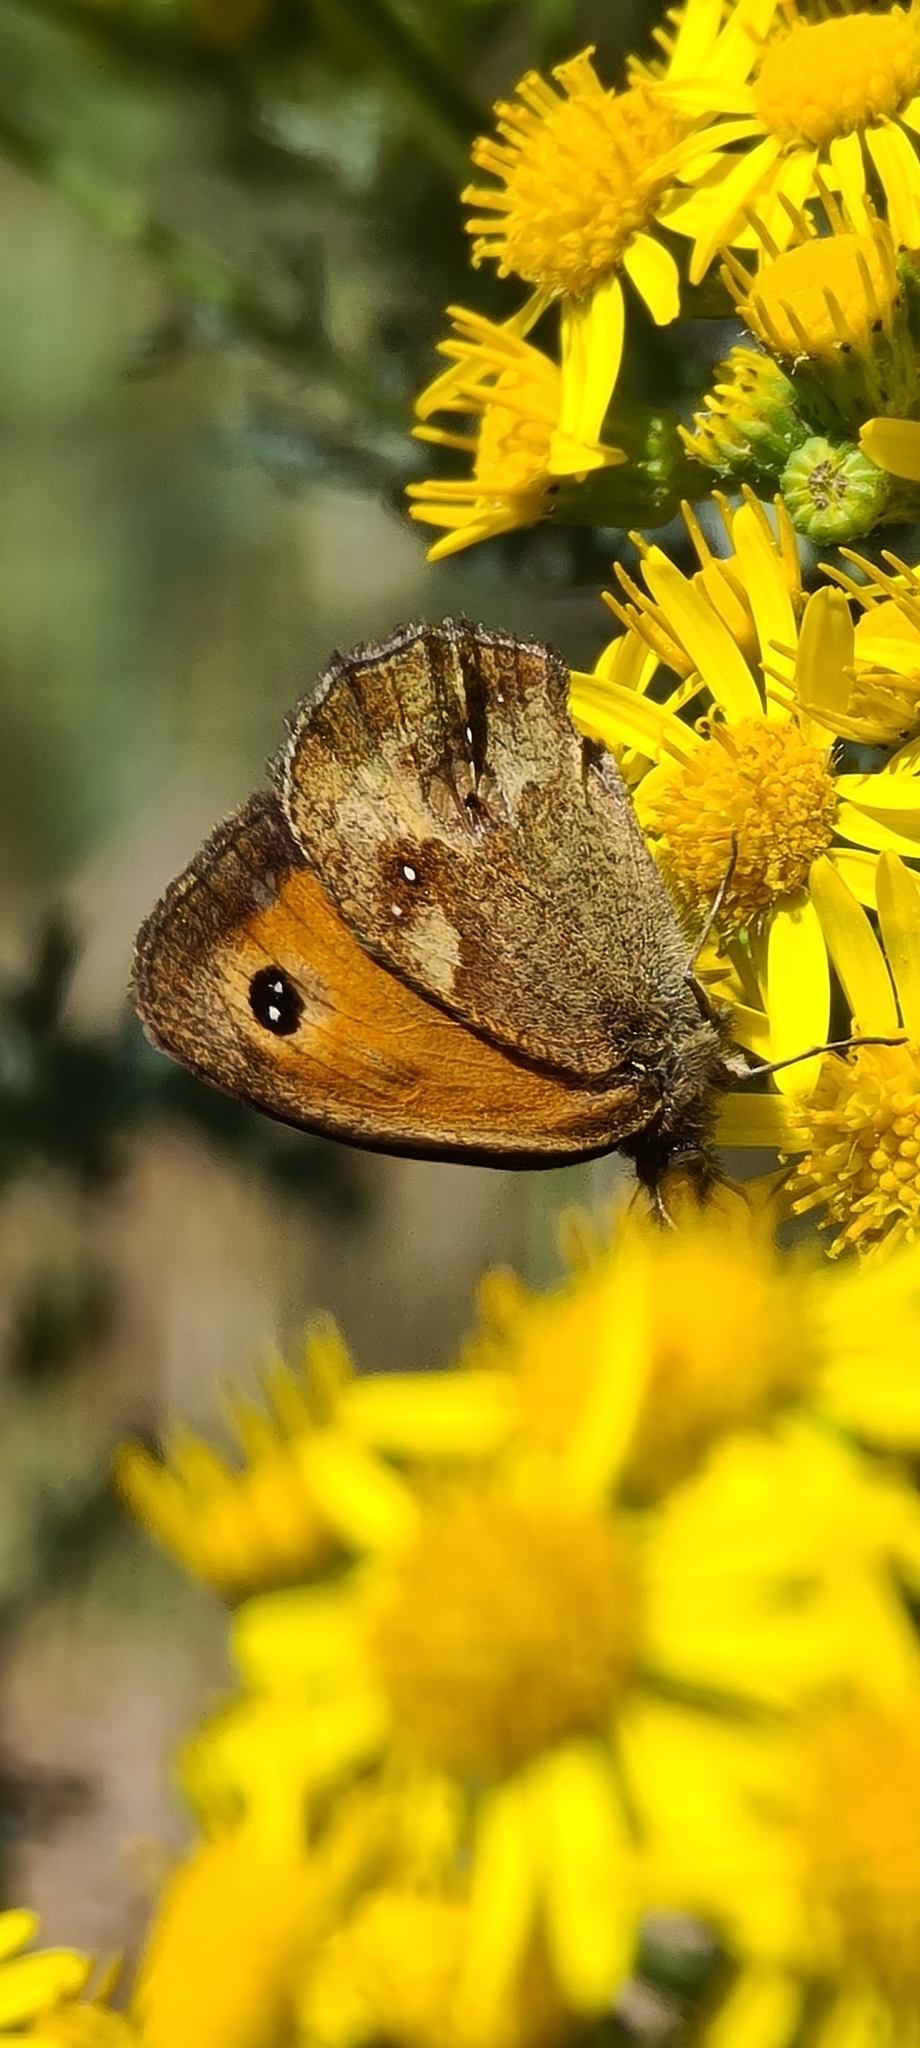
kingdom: Animalia
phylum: Arthropoda
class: Insecta
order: Lepidoptera
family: Nymphalidae
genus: Pyronia
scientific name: Pyronia tithonus
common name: Gatekeeper
